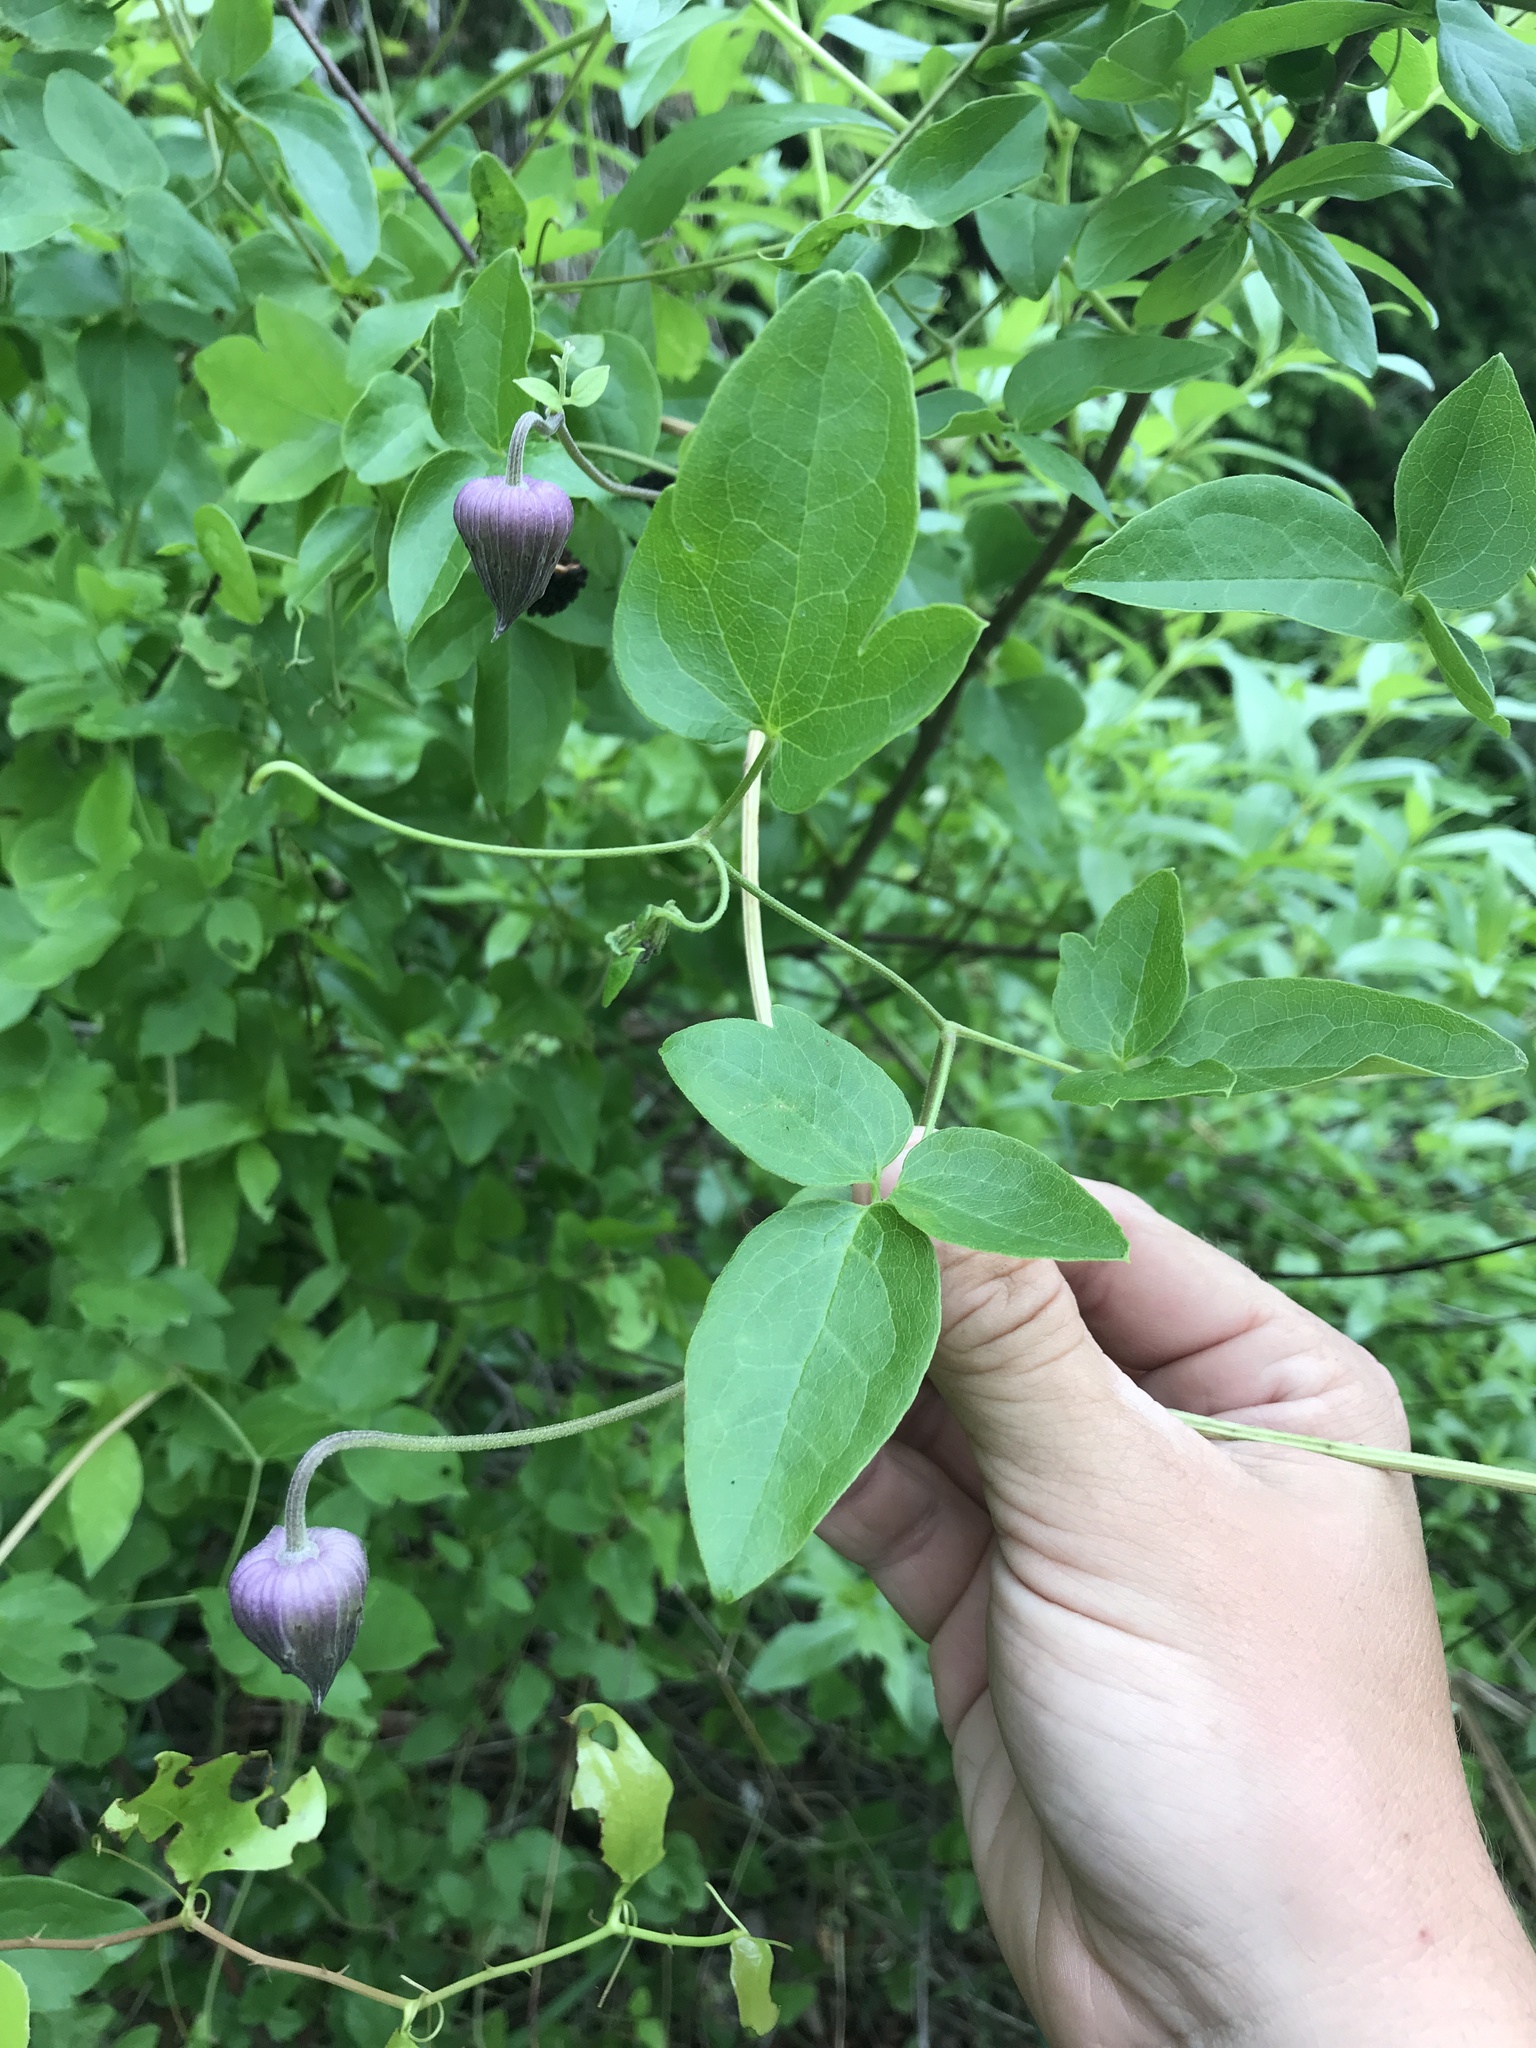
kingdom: Plantae
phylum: Tracheophyta
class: Magnoliopsida
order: Ranunculales
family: Ranunculaceae
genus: Clematis
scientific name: Clematis pitcheri
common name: Bellflower clematis
